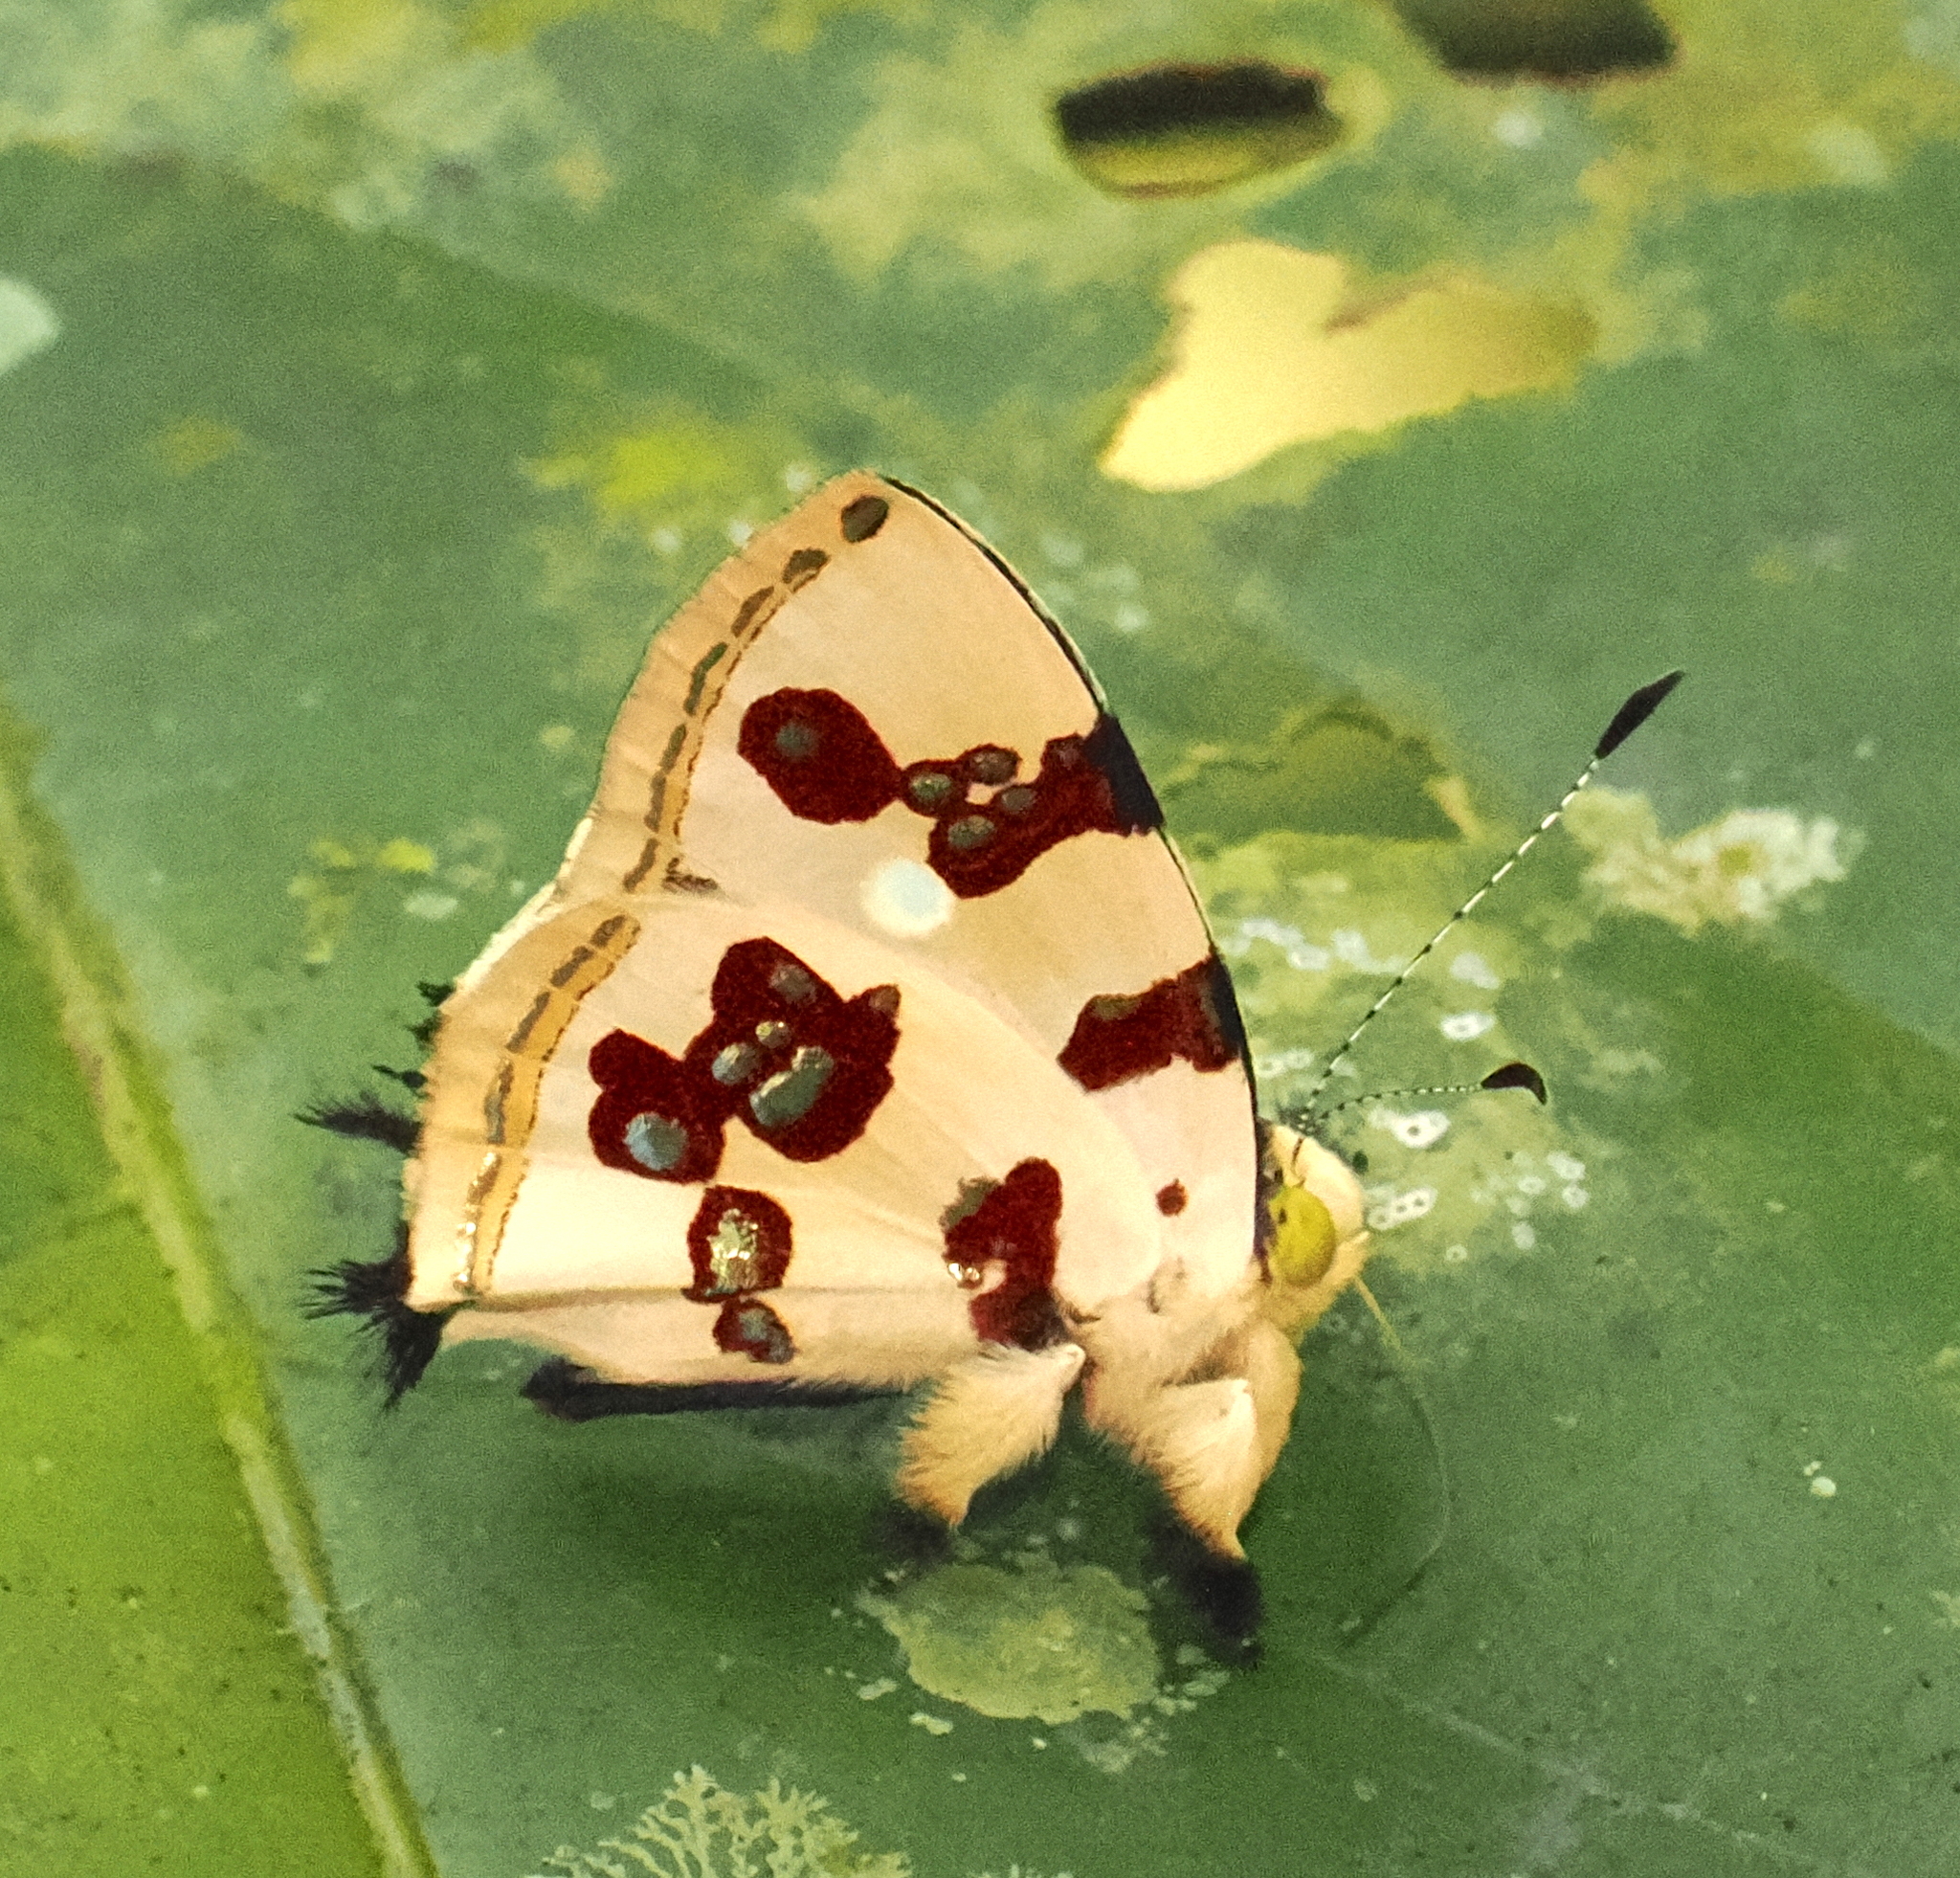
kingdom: Animalia
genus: Anteros
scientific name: Anteros formosus
